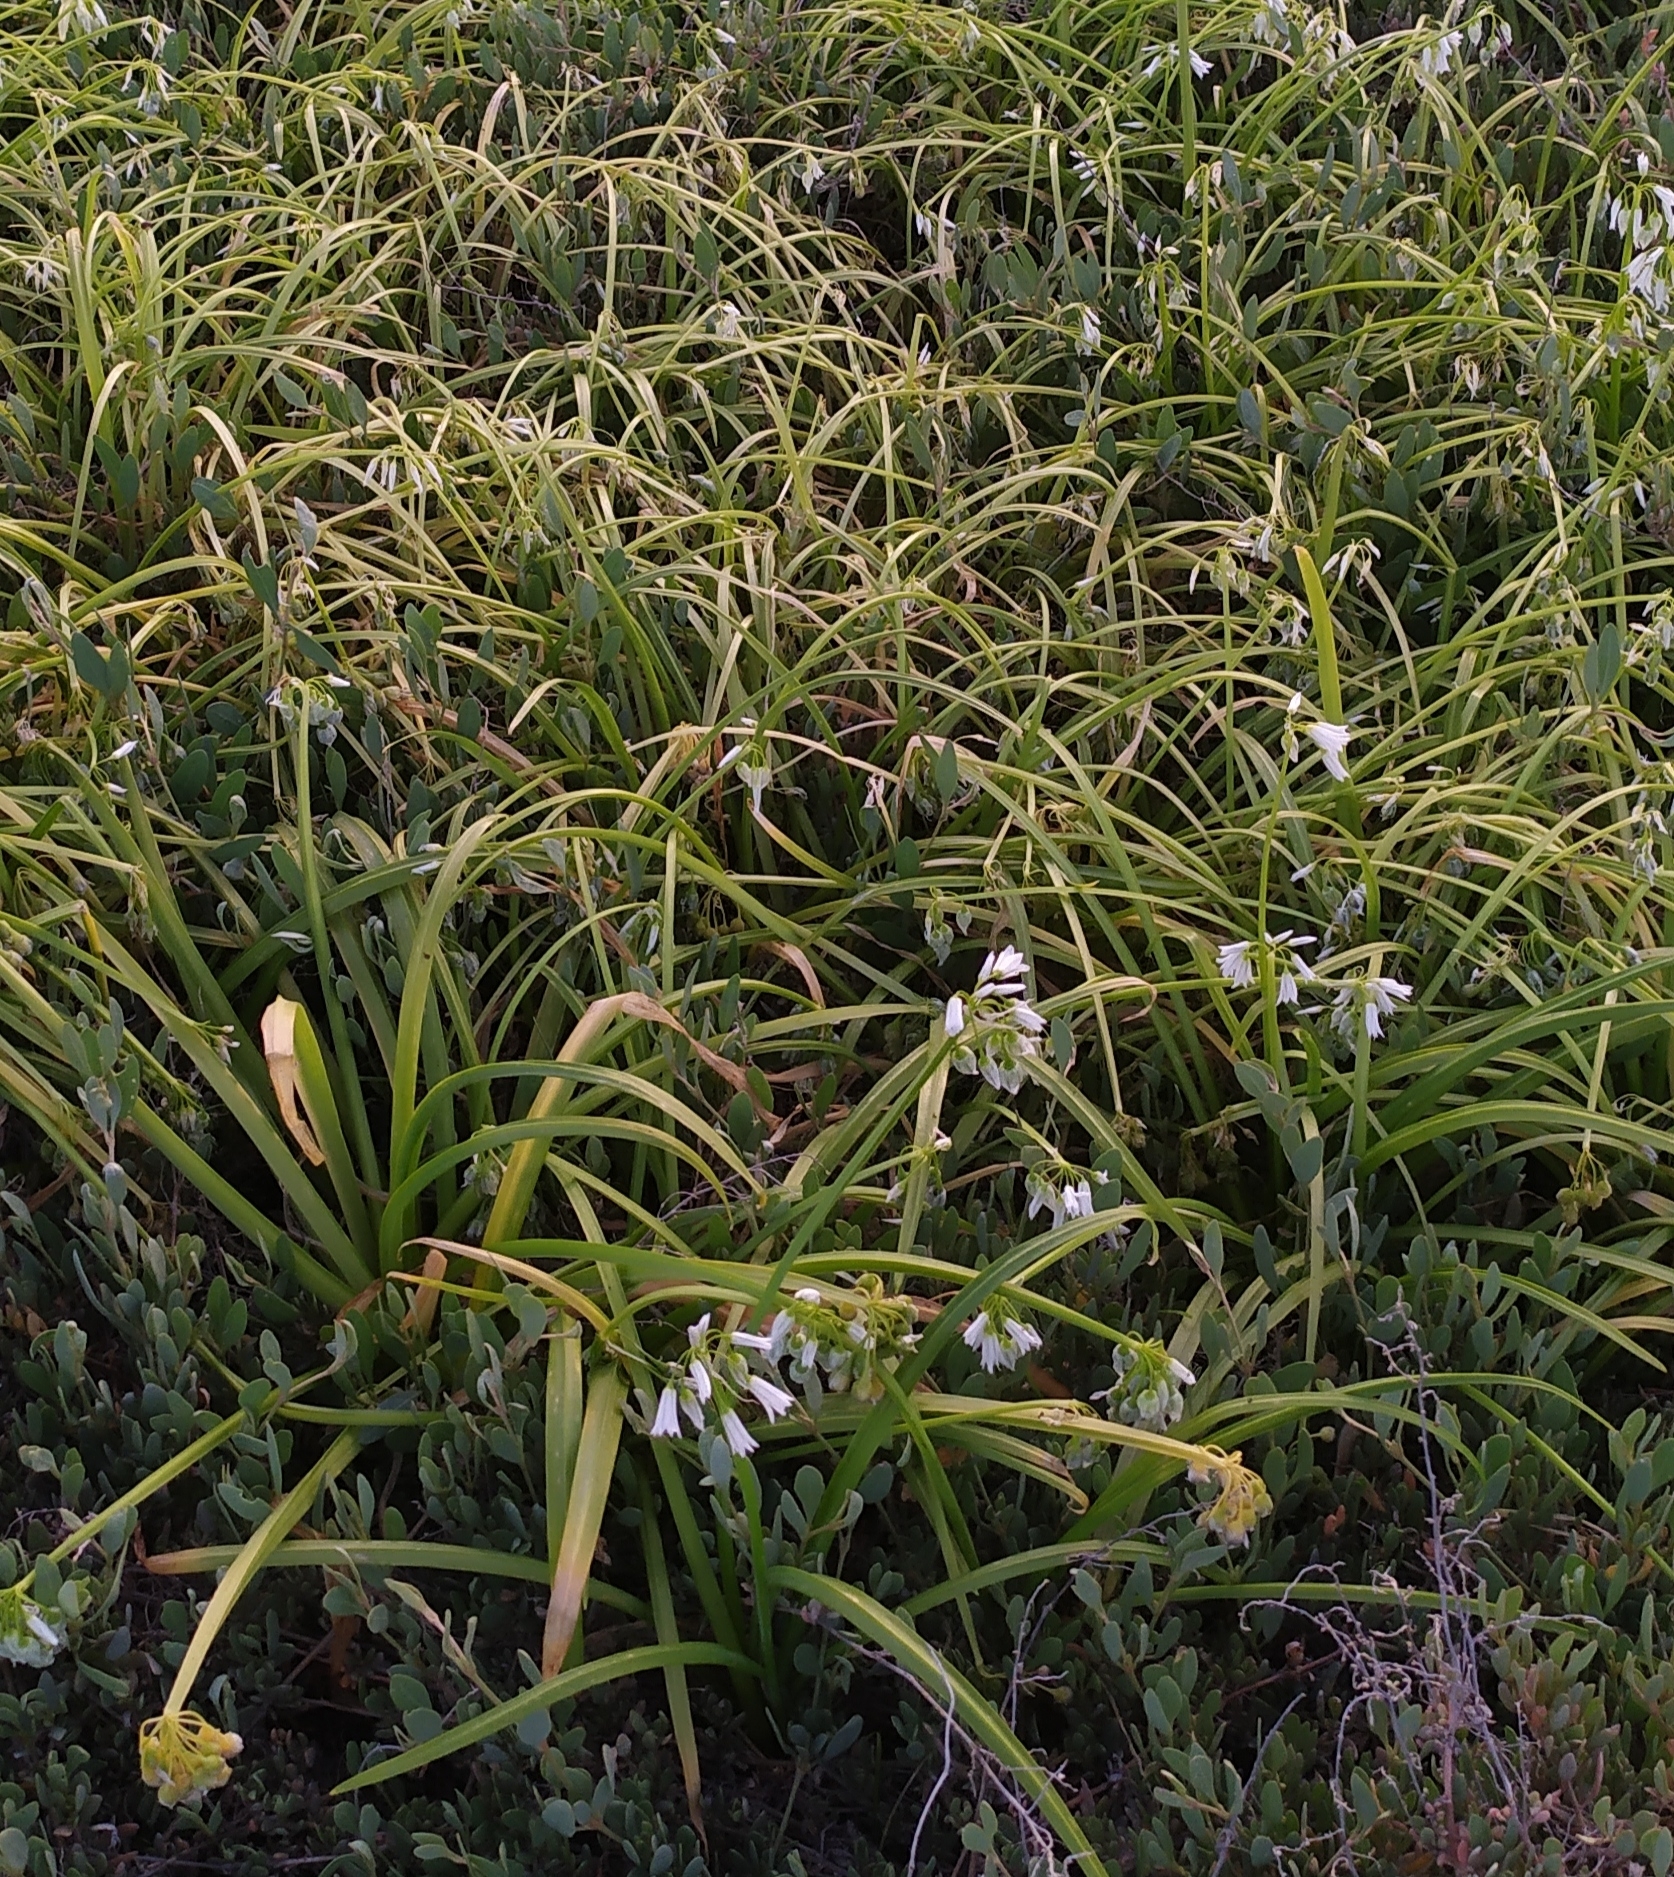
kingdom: Plantae
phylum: Tracheophyta
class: Liliopsida
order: Asparagales
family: Amaryllidaceae
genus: Allium
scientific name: Allium triquetrum
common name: Three-cornered garlic
